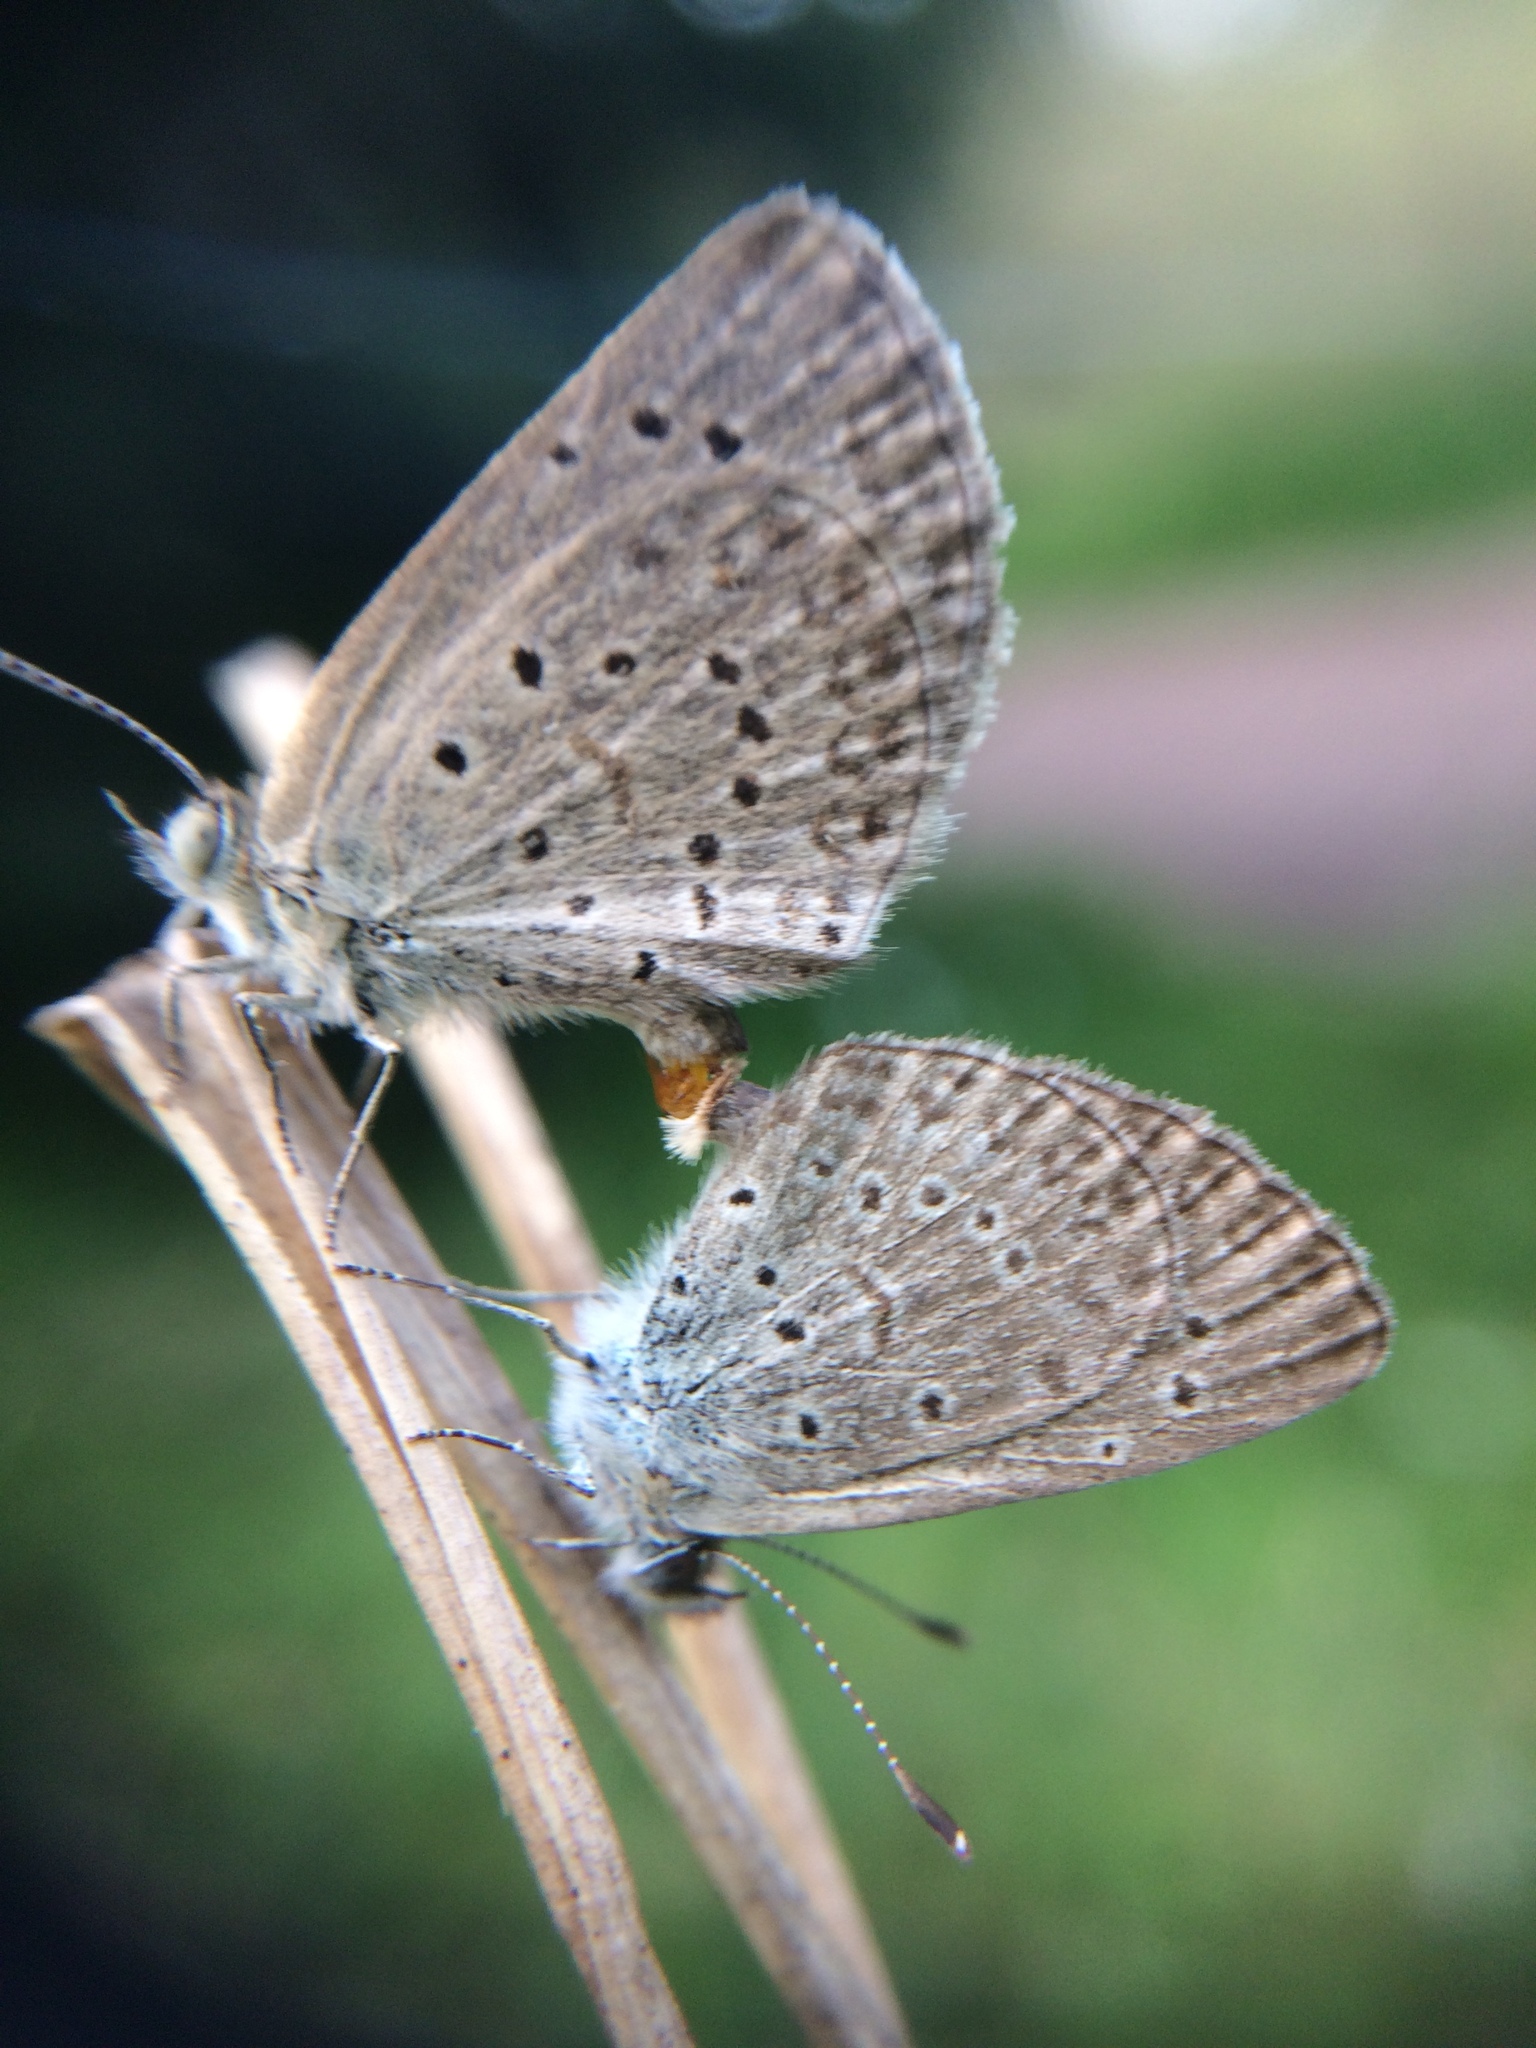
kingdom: Animalia
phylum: Arthropoda
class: Insecta
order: Lepidoptera
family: Lycaenidae
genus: Zizeeria
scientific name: Zizeeria knysna
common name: African grass blue
